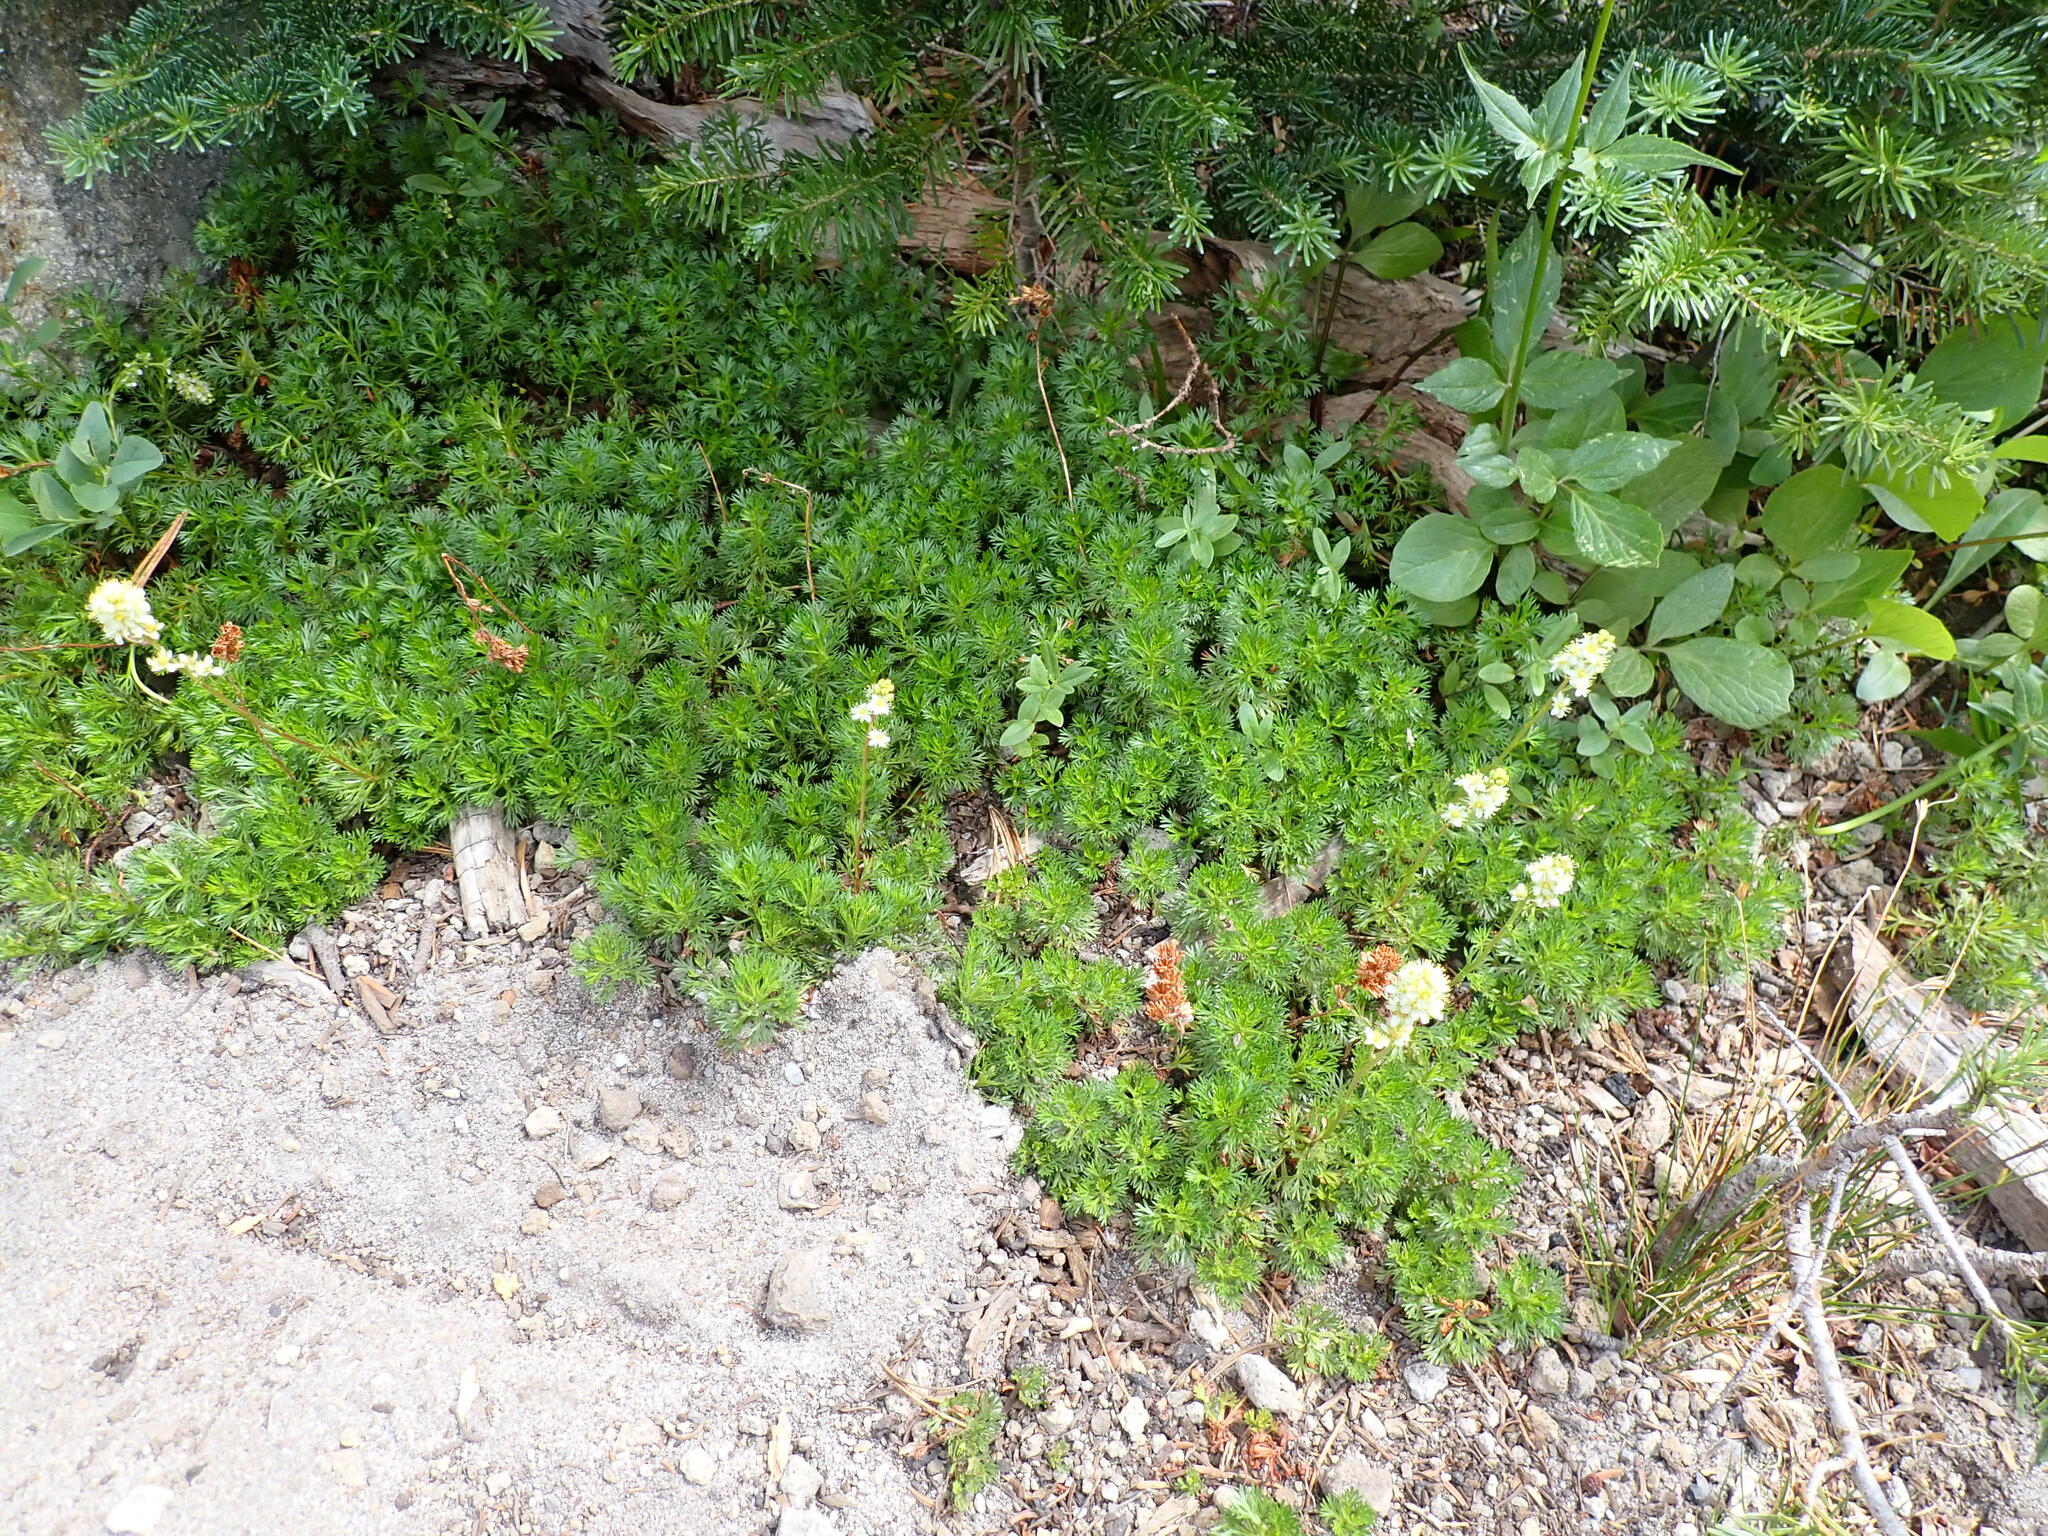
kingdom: Plantae
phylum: Tracheophyta
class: Magnoliopsida
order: Rosales
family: Rosaceae
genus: Luetkea
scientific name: Luetkea pectinata
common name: Partridgefoot
